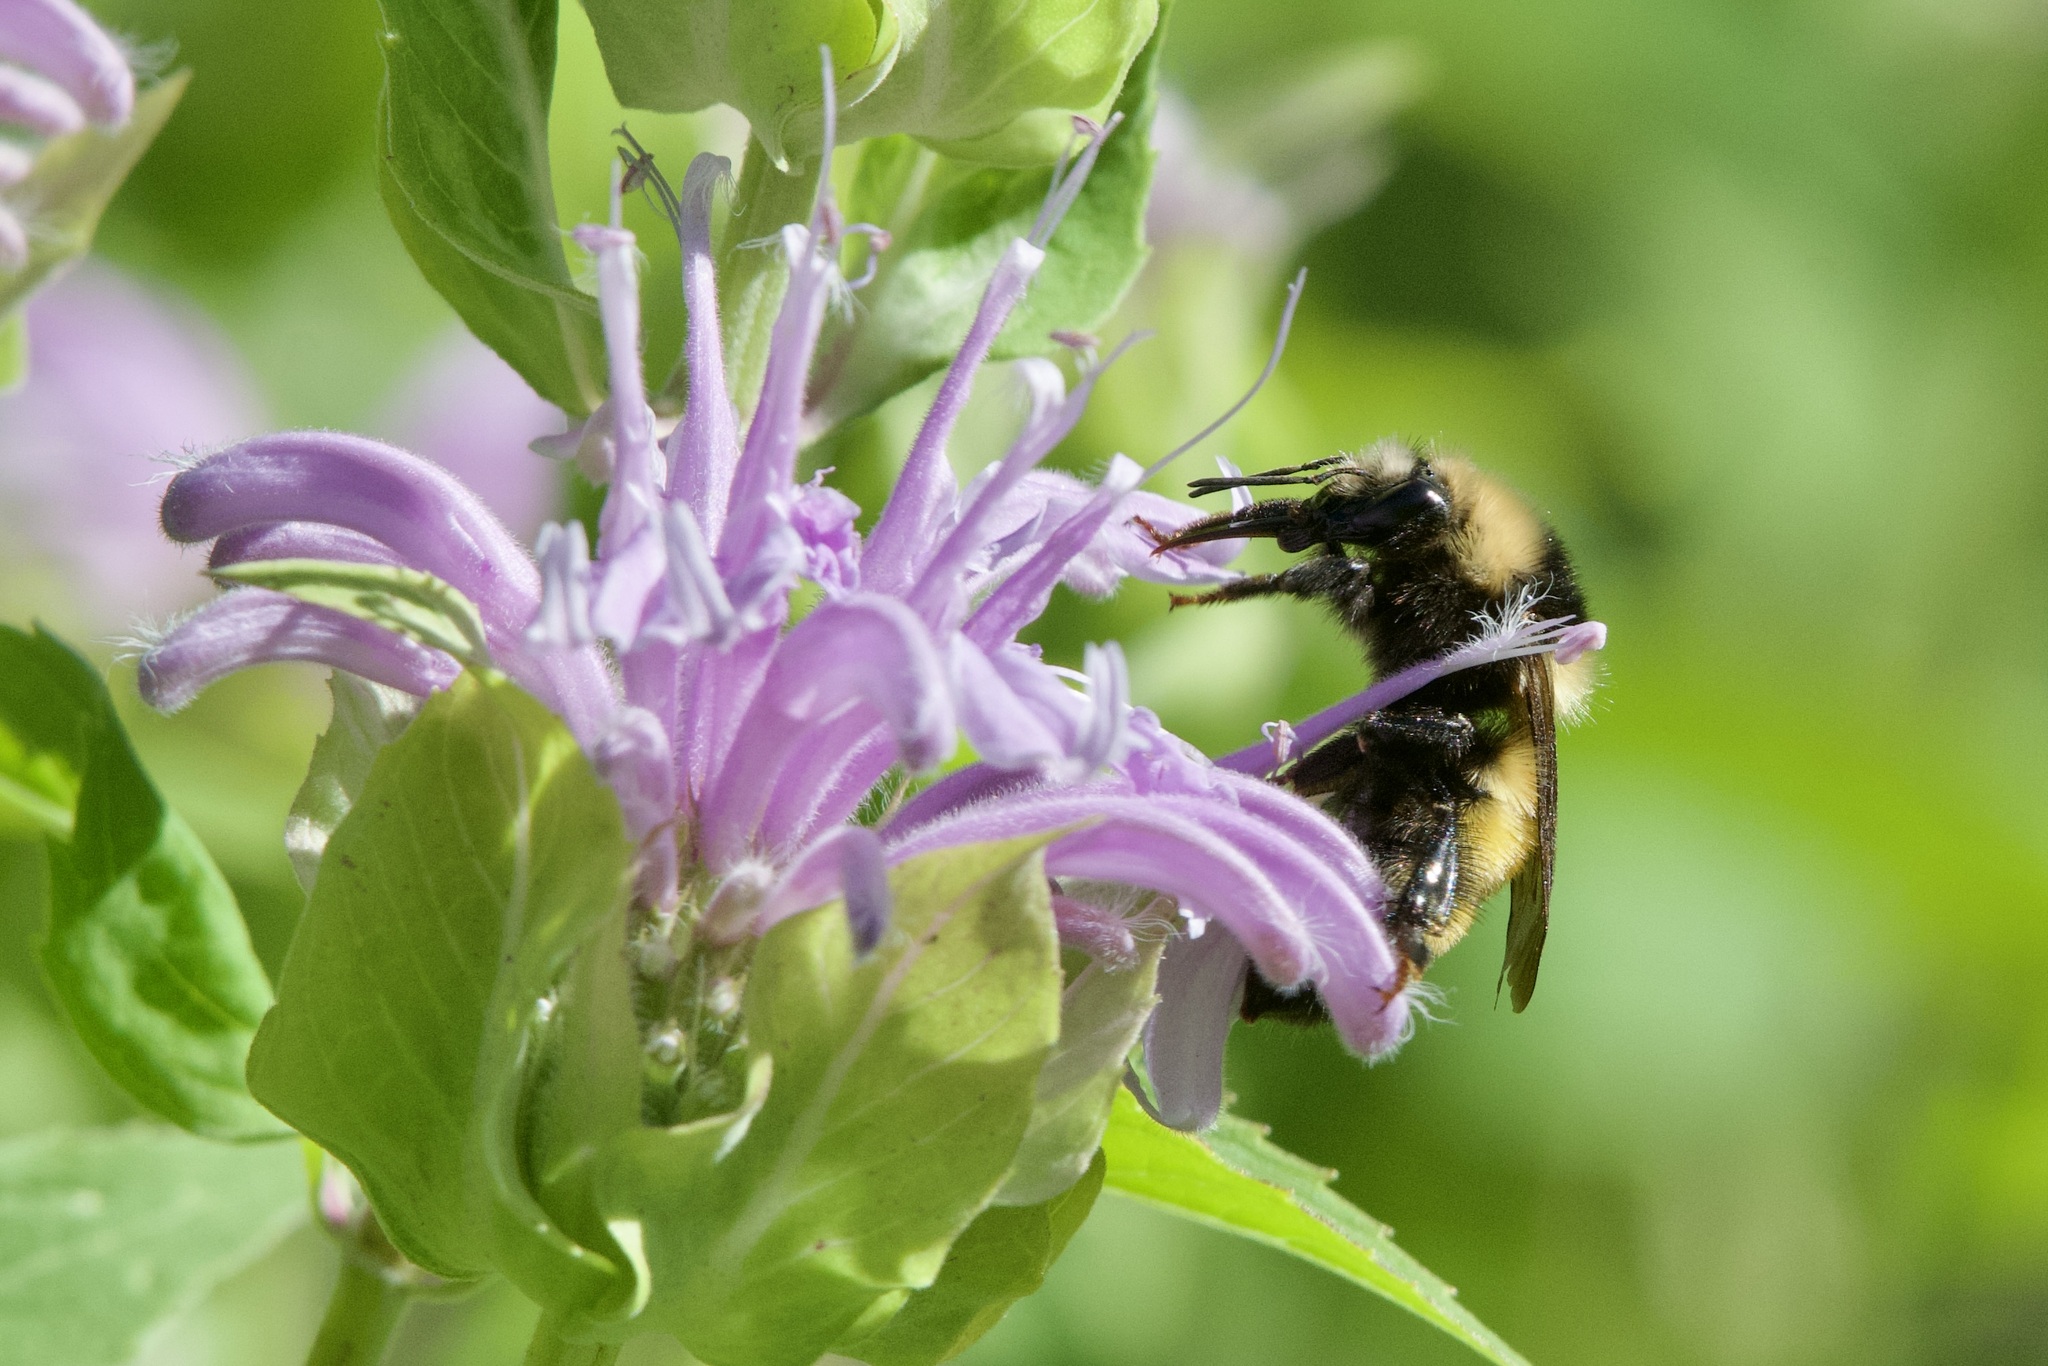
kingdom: Animalia
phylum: Arthropoda
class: Insecta
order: Hymenoptera
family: Apidae
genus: Bombus
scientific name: Bombus borealis
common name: Northern amber bumble bee
